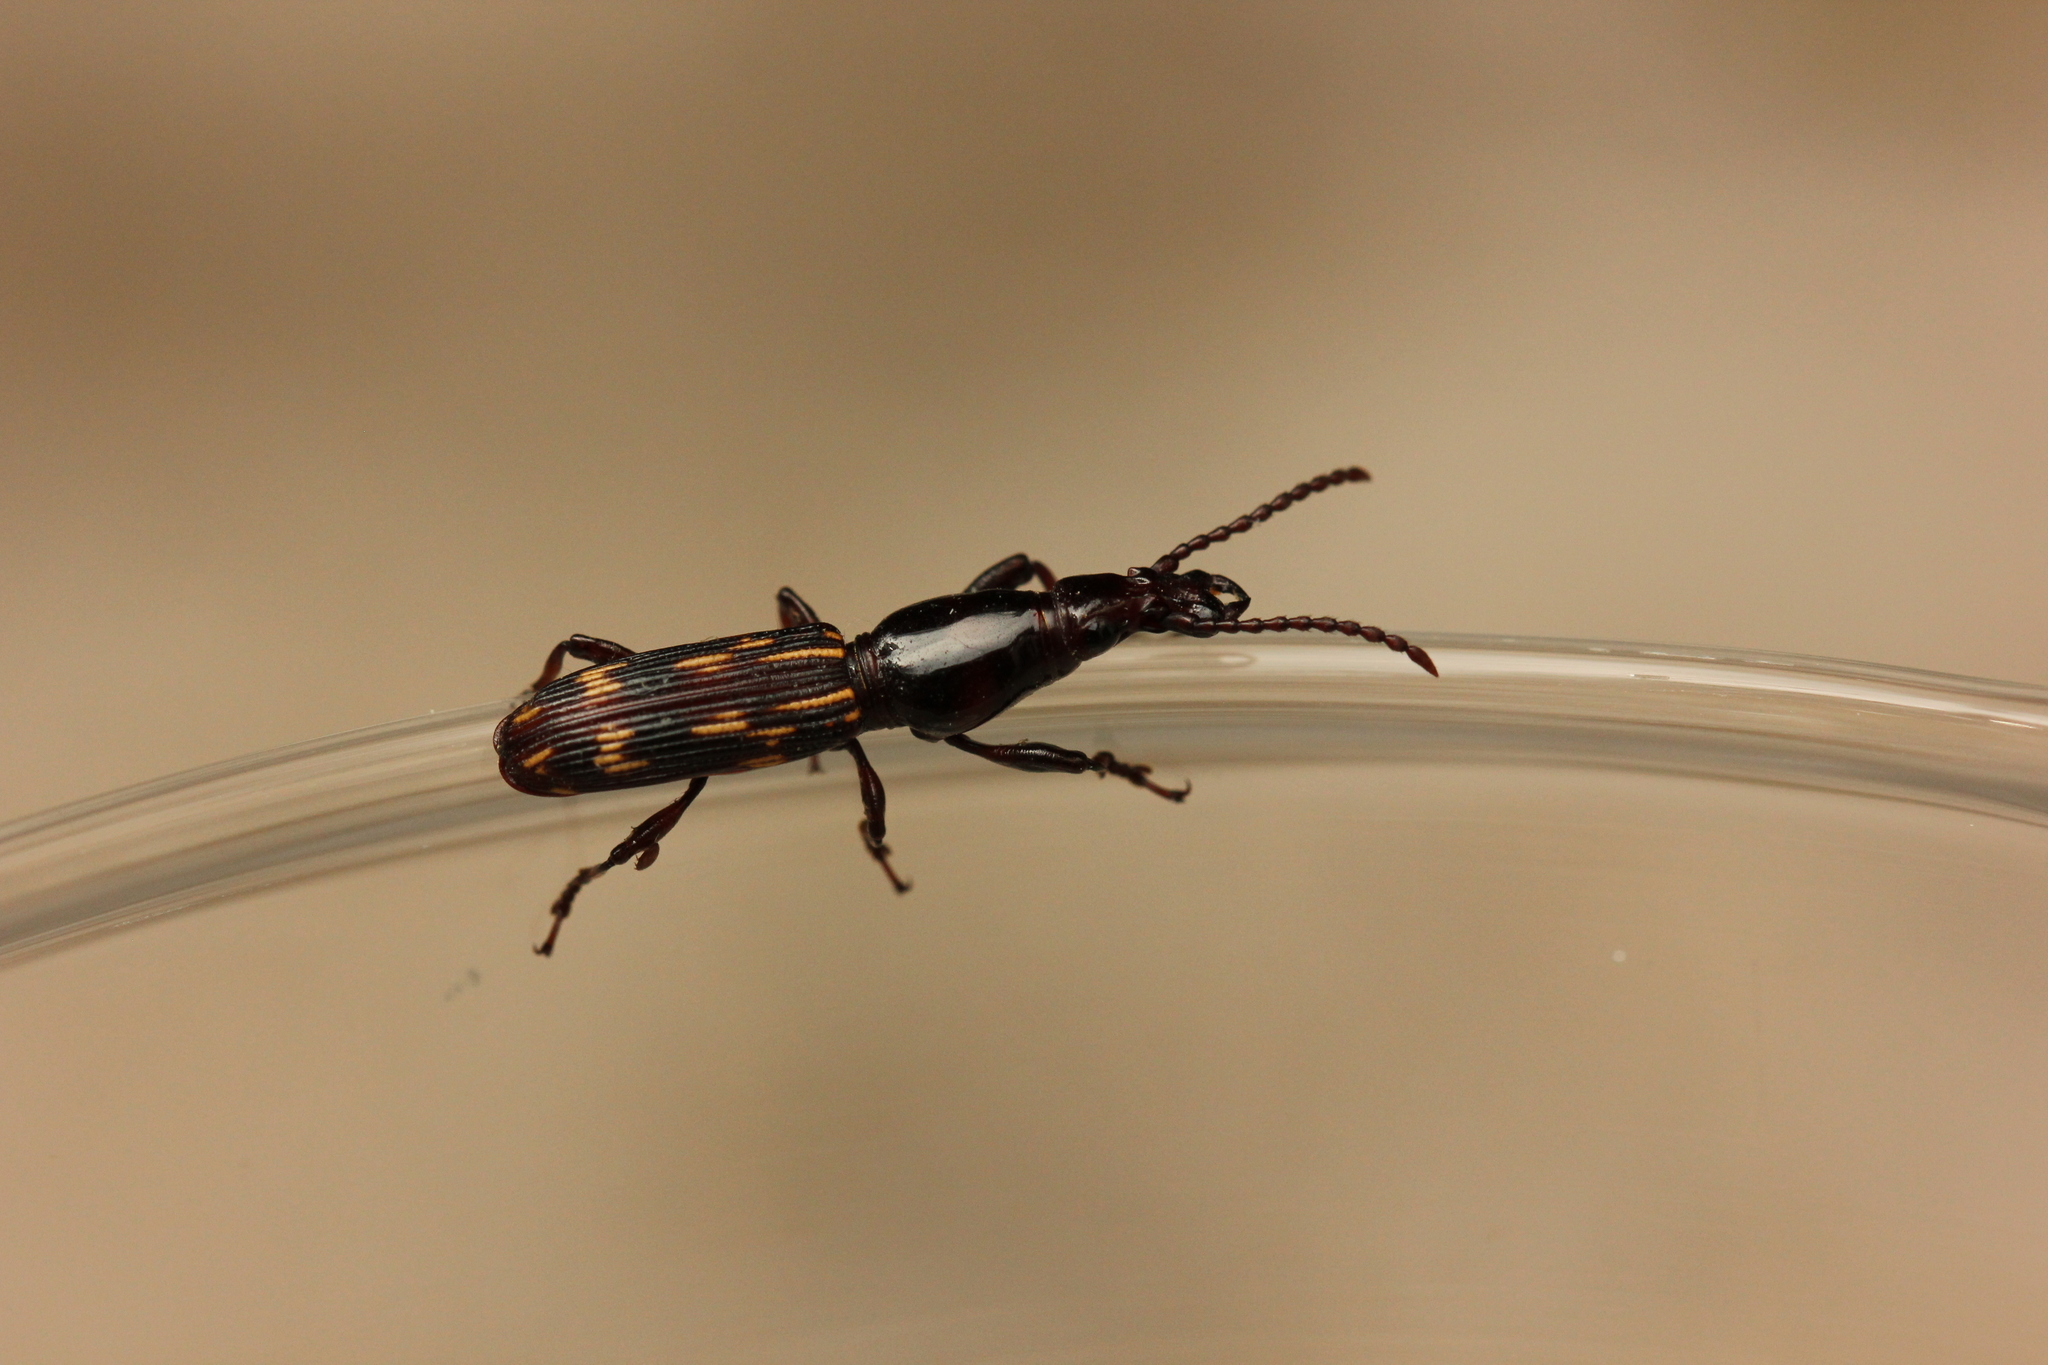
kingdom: Animalia
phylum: Arthropoda
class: Insecta
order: Coleoptera
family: Brentidae
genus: Arrenodes
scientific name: Arrenodes minutus
